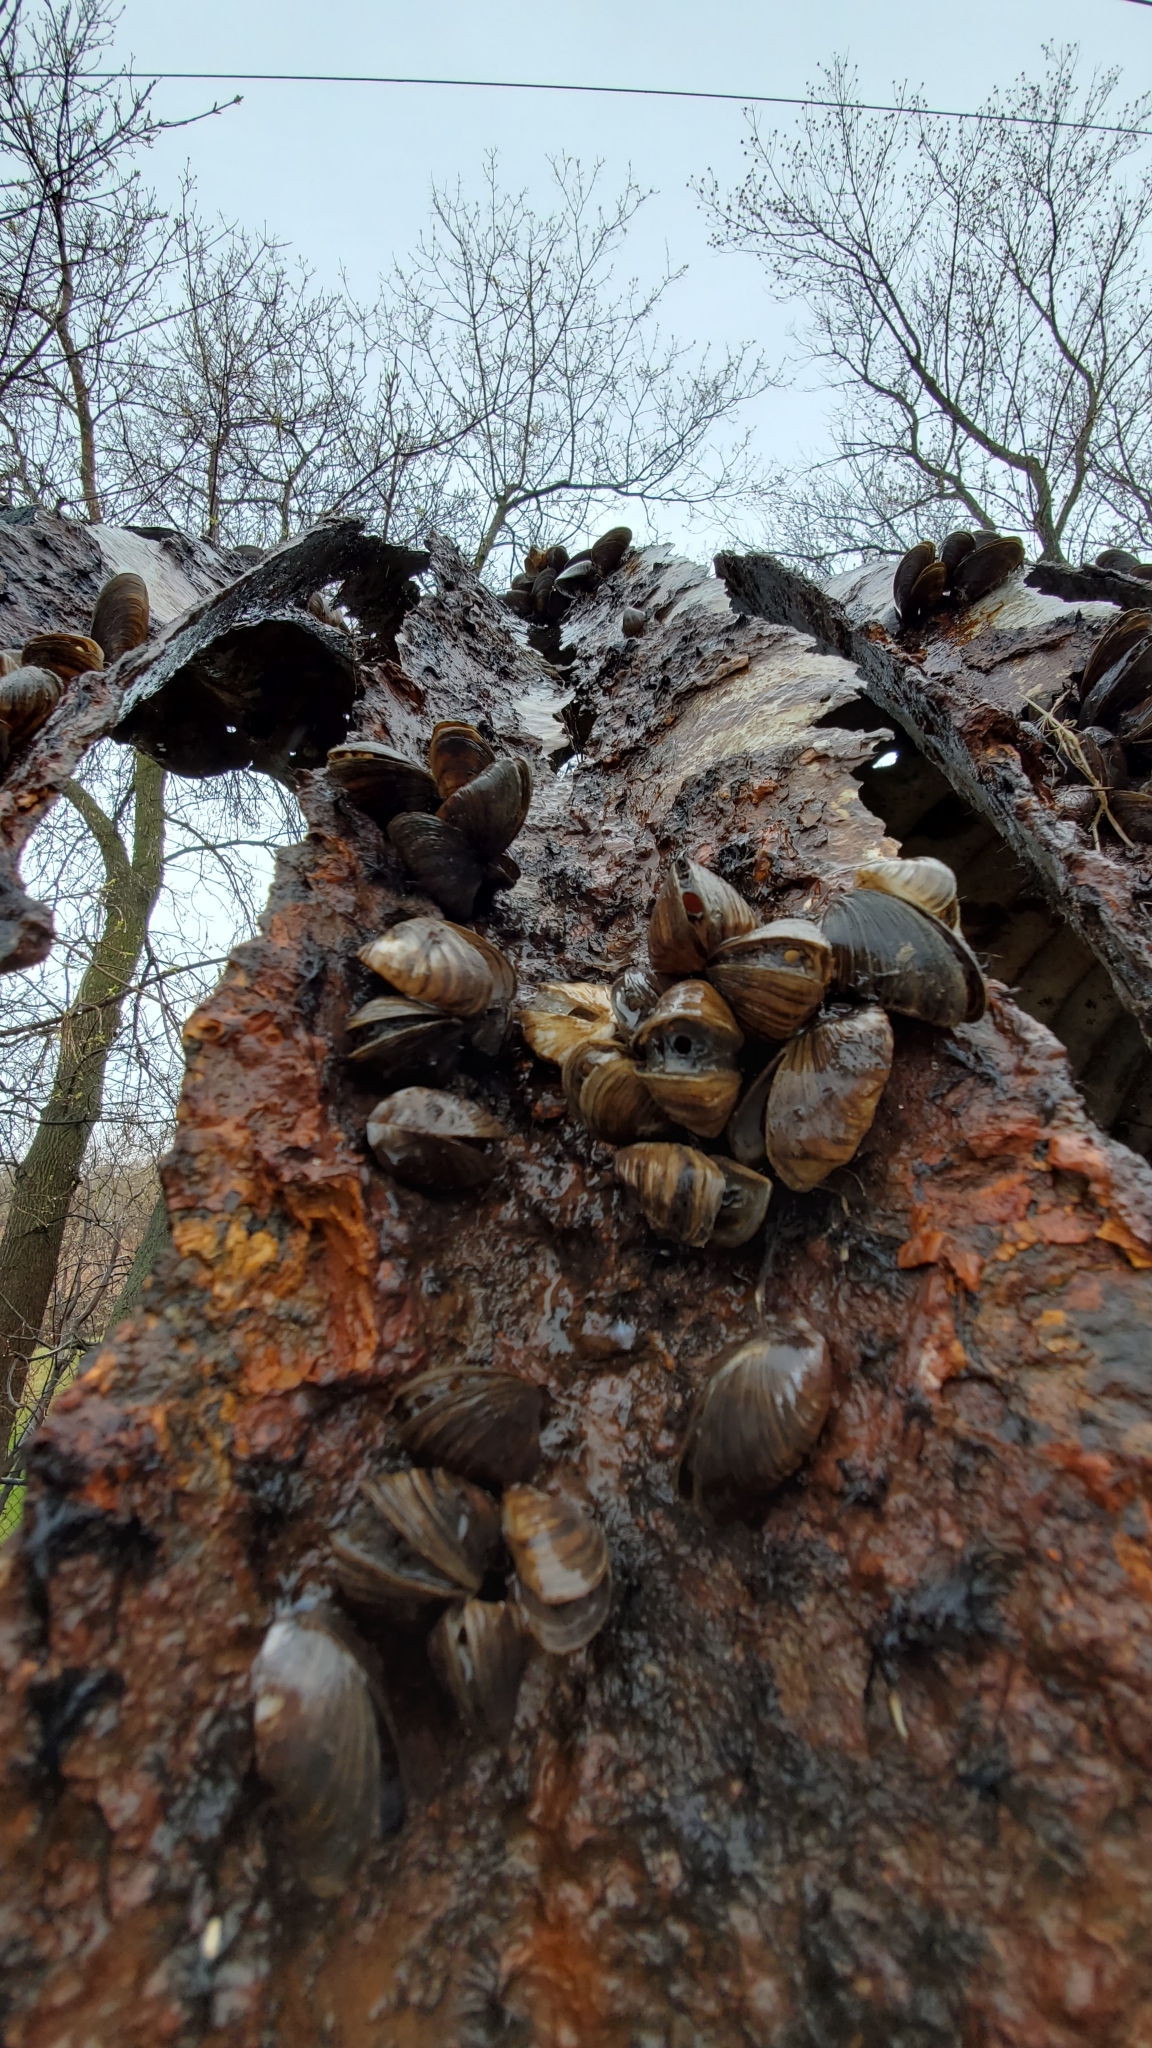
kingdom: Animalia
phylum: Mollusca
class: Bivalvia
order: Myida
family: Dreissenidae
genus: Dreissena
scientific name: Dreissena polymorpha
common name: Zebra mussel
